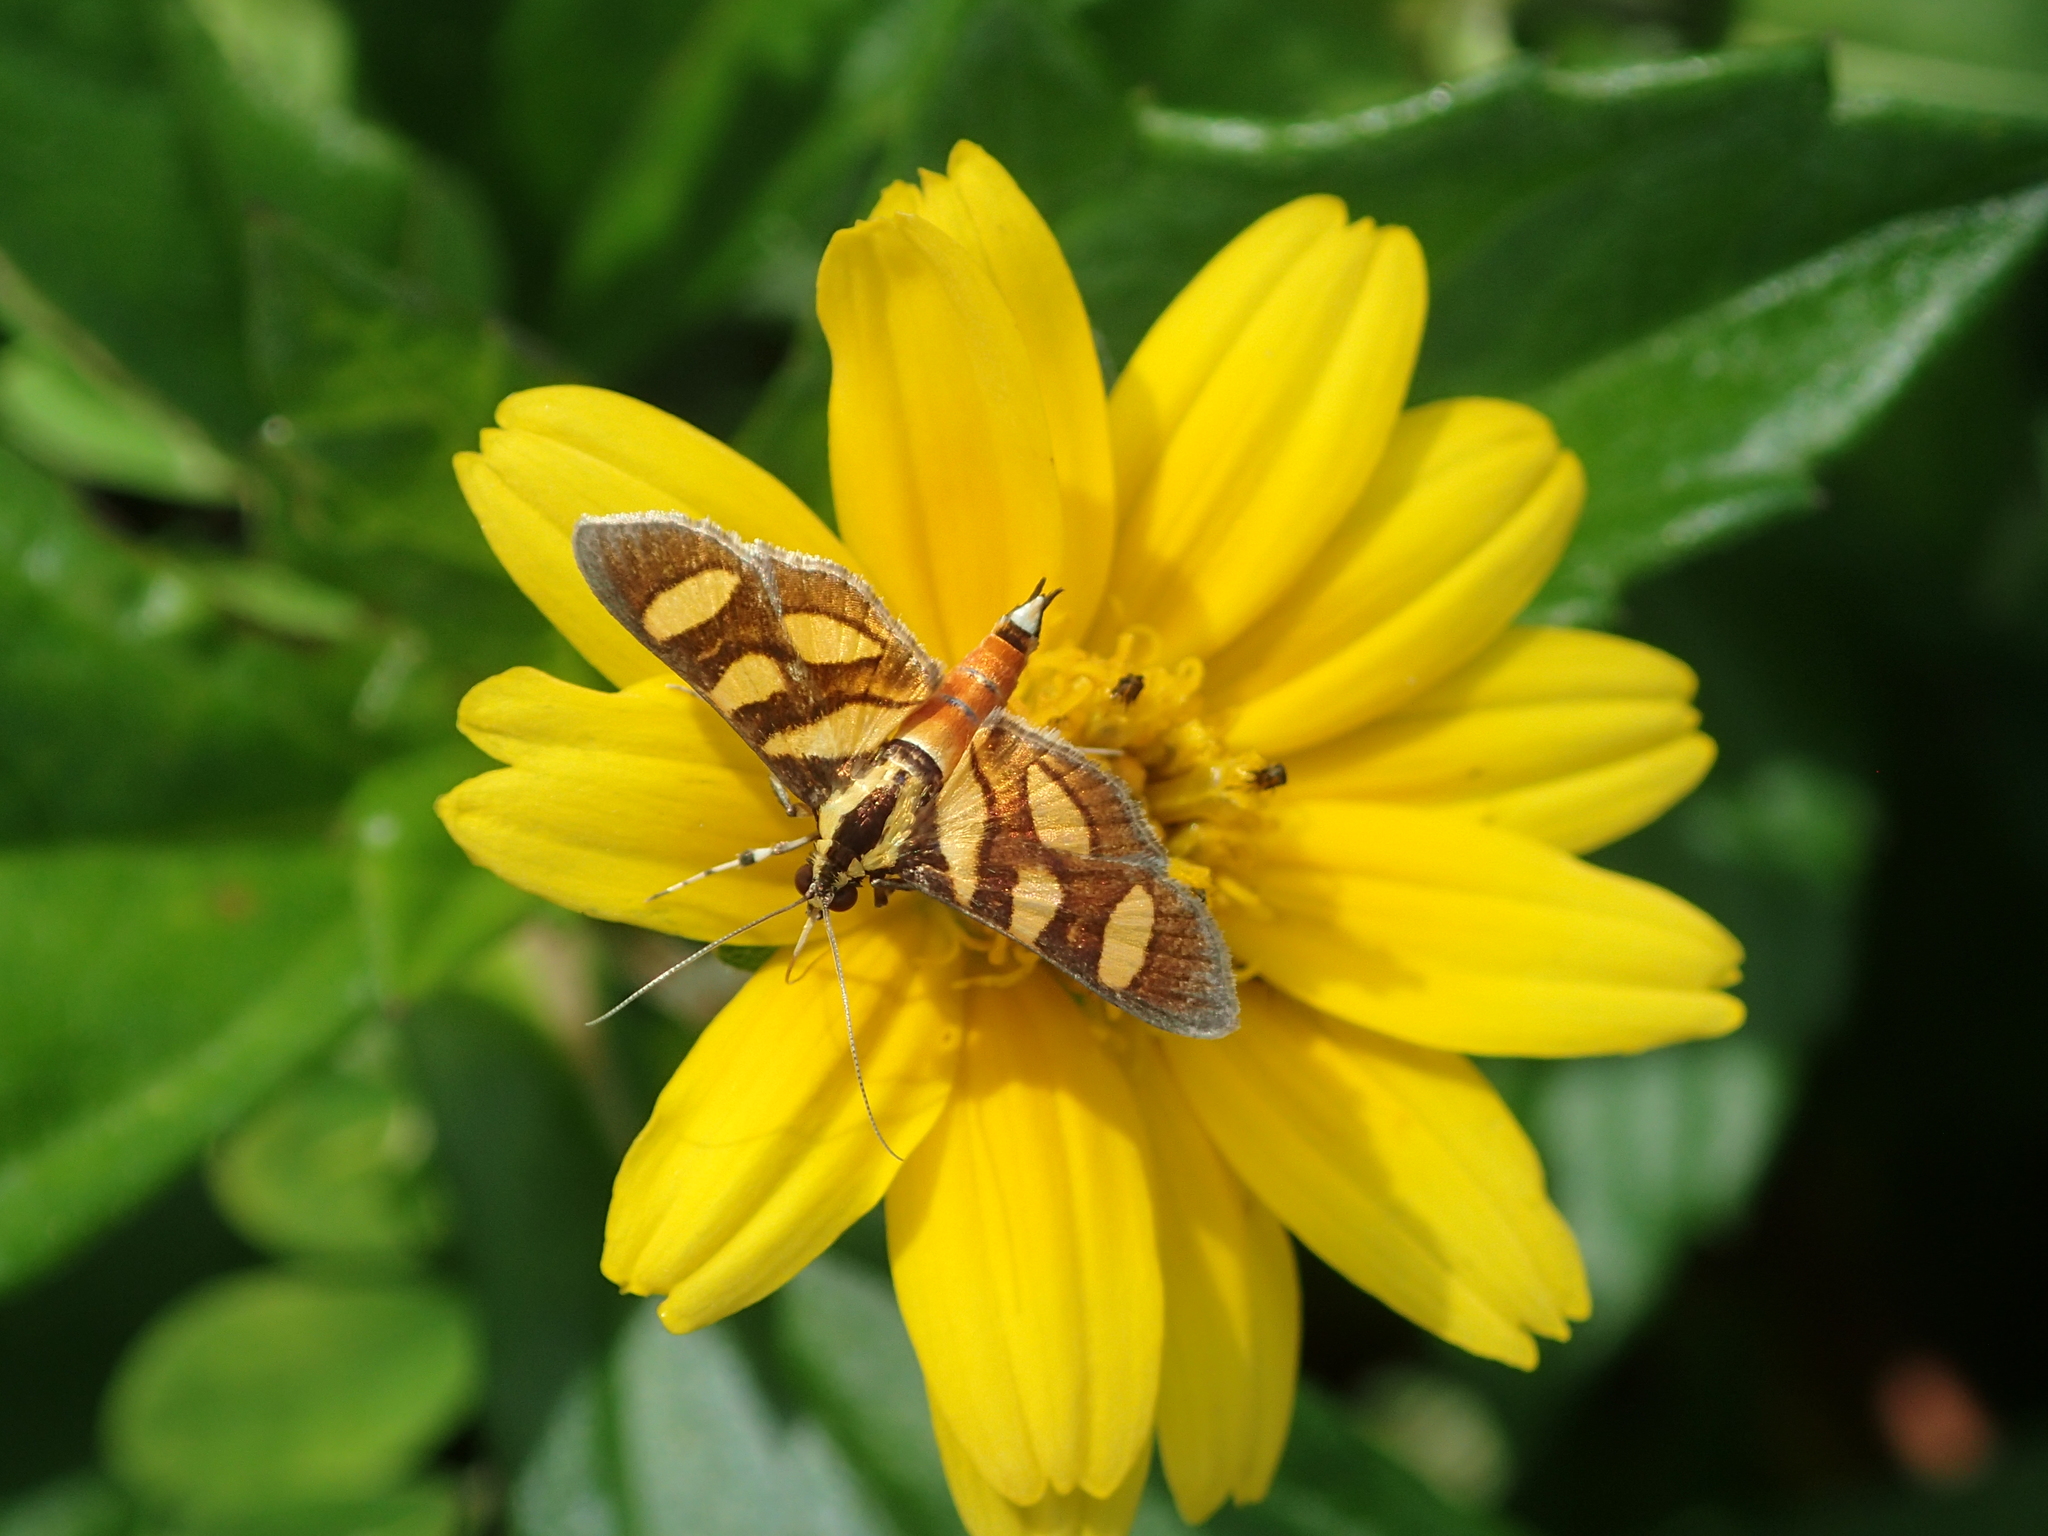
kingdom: Animalia
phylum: Arthropoda
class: Insecta
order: Lepidoptera
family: Crambidae
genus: Syngamia
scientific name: Syngamia florella
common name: Orange-spotted flower moth
